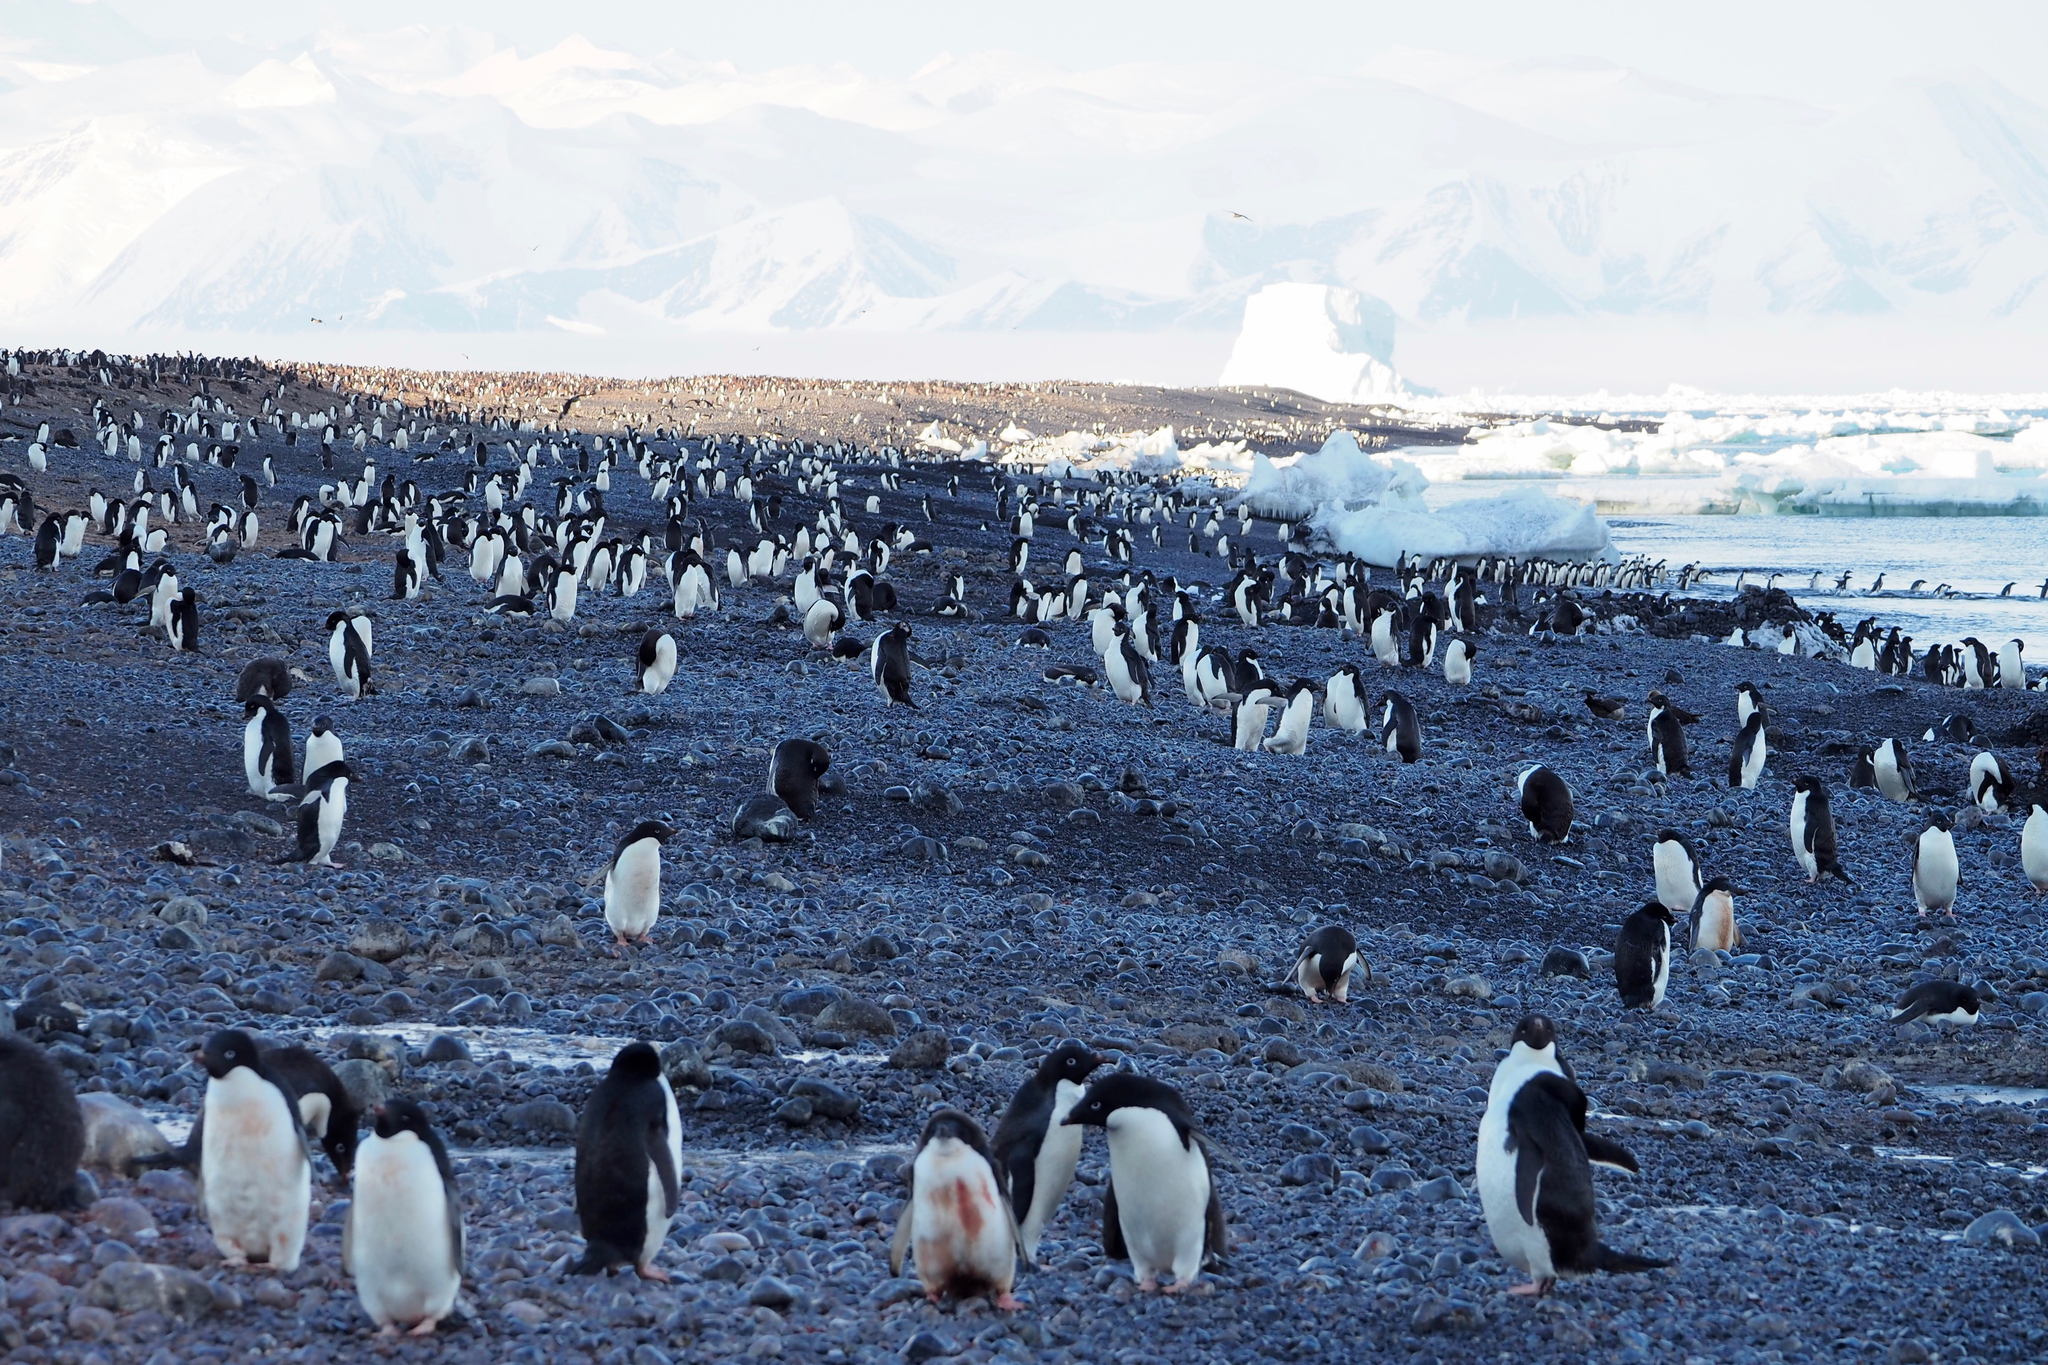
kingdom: Animalia
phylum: Chordata
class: Aves
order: Sphenisciformes
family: Spheniscidae
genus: Pygoscelis
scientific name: Pygoscelis adeliae
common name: Adelie penguin
